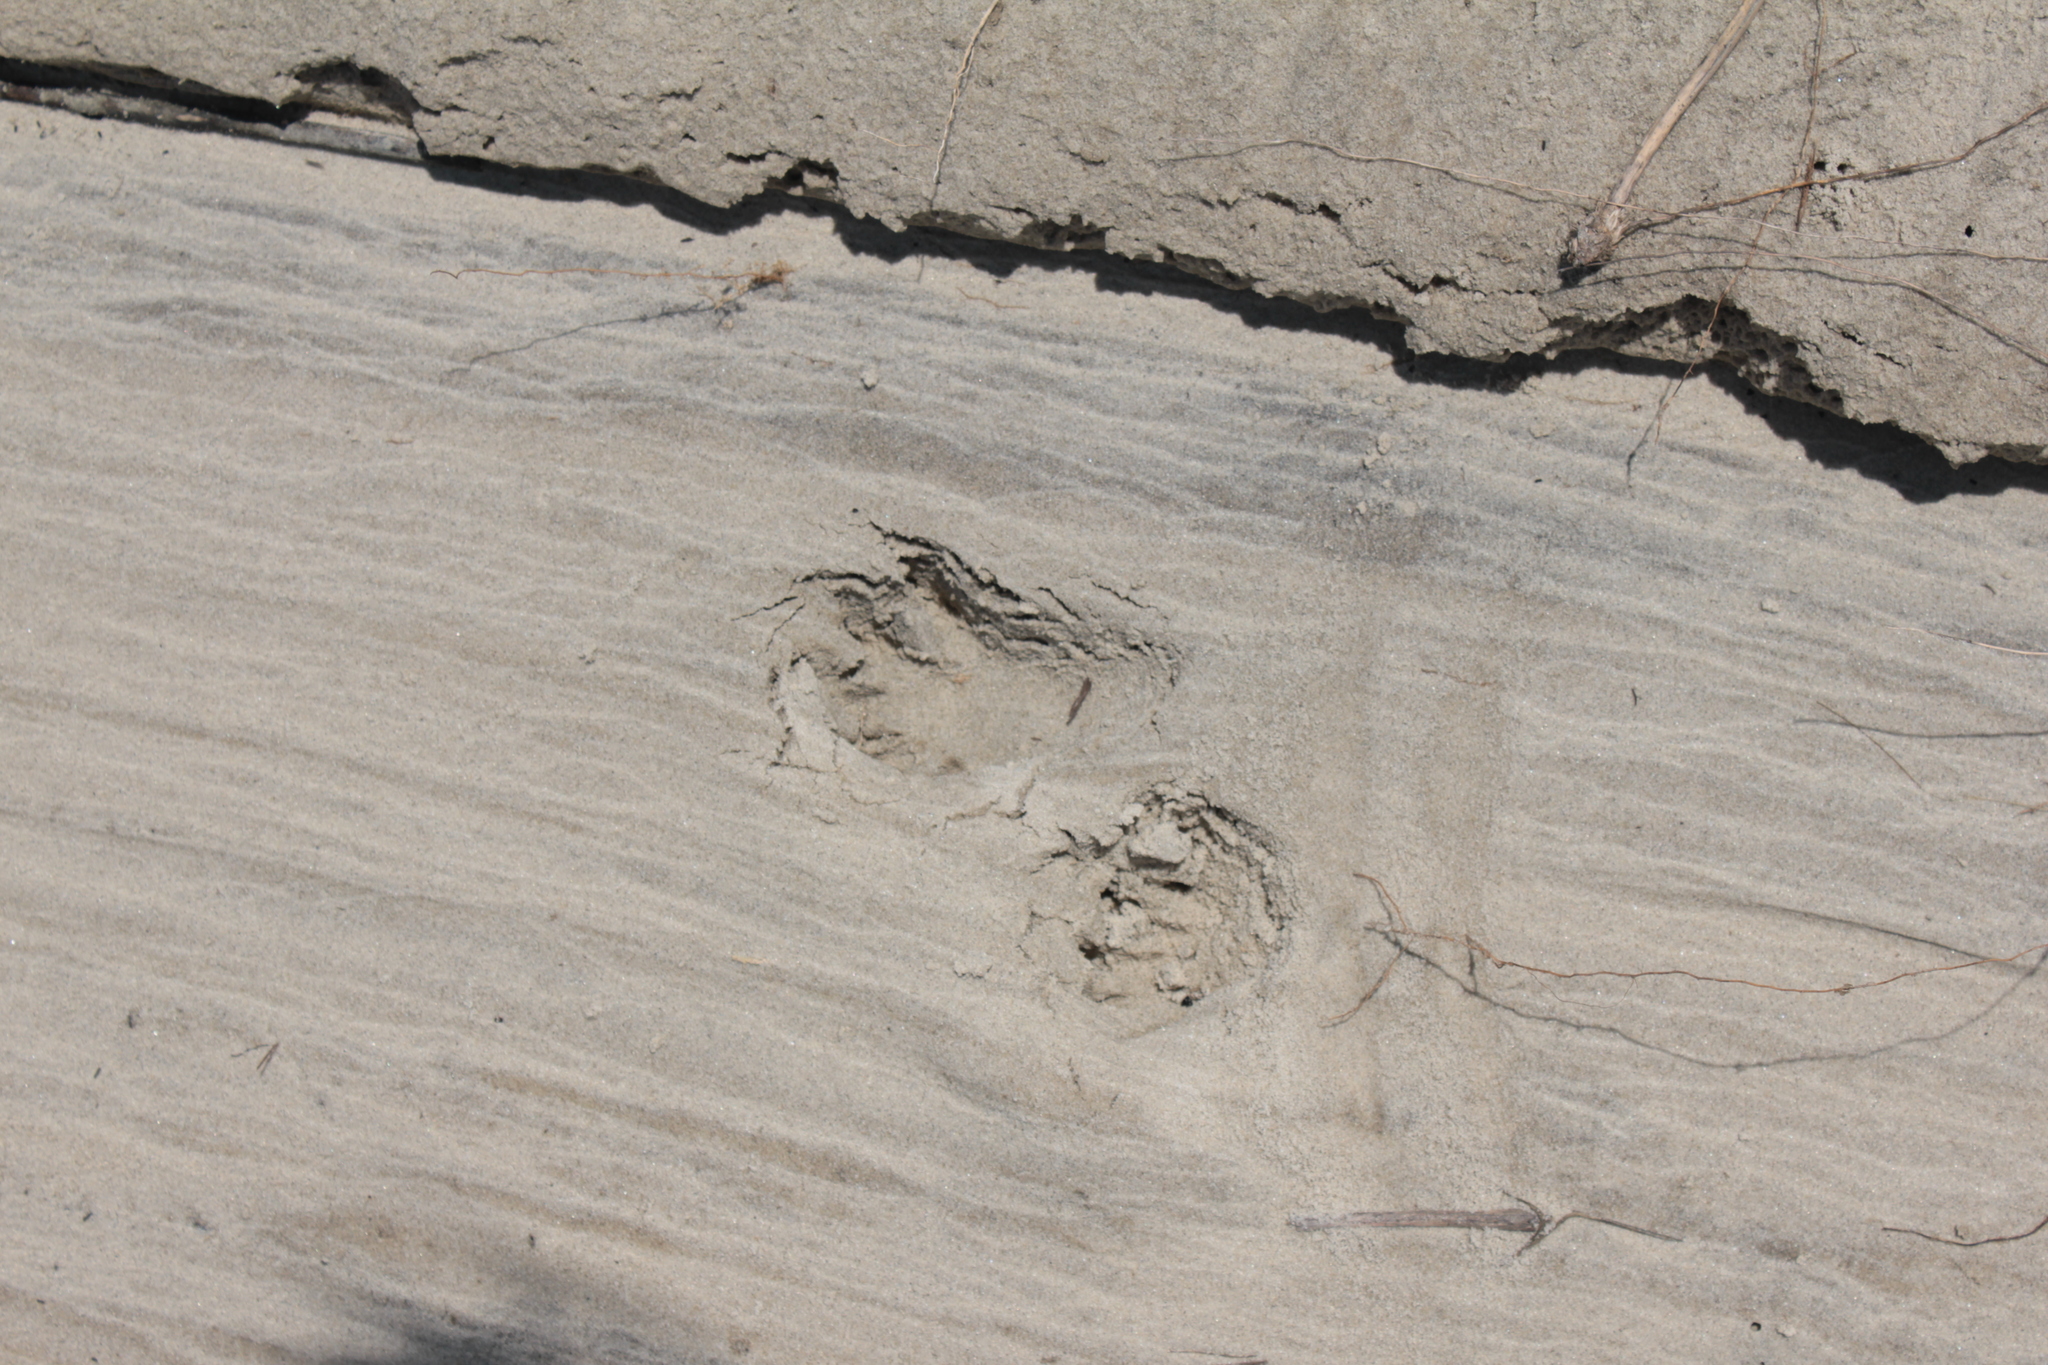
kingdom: Animalia
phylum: Chordata
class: Mammalia
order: Carnivora
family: Procyonidae
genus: Procyon
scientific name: Procyon lotor
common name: Raccoon
